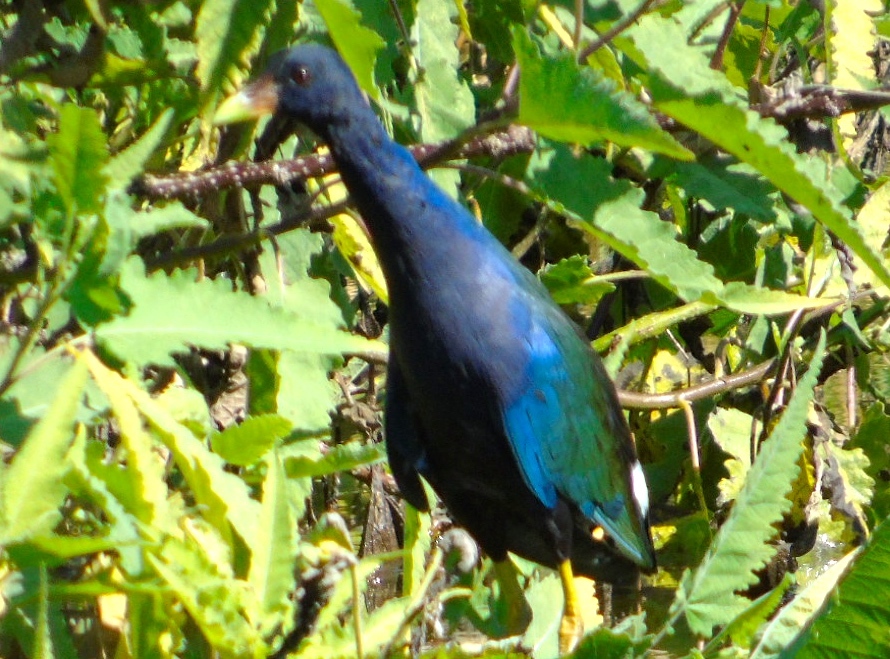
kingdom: Animalia
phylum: Chordata
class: Aves
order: Gruiformes
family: Rallidae
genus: Porphyrio
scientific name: Porphyrio martinica
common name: Purple gallinule
